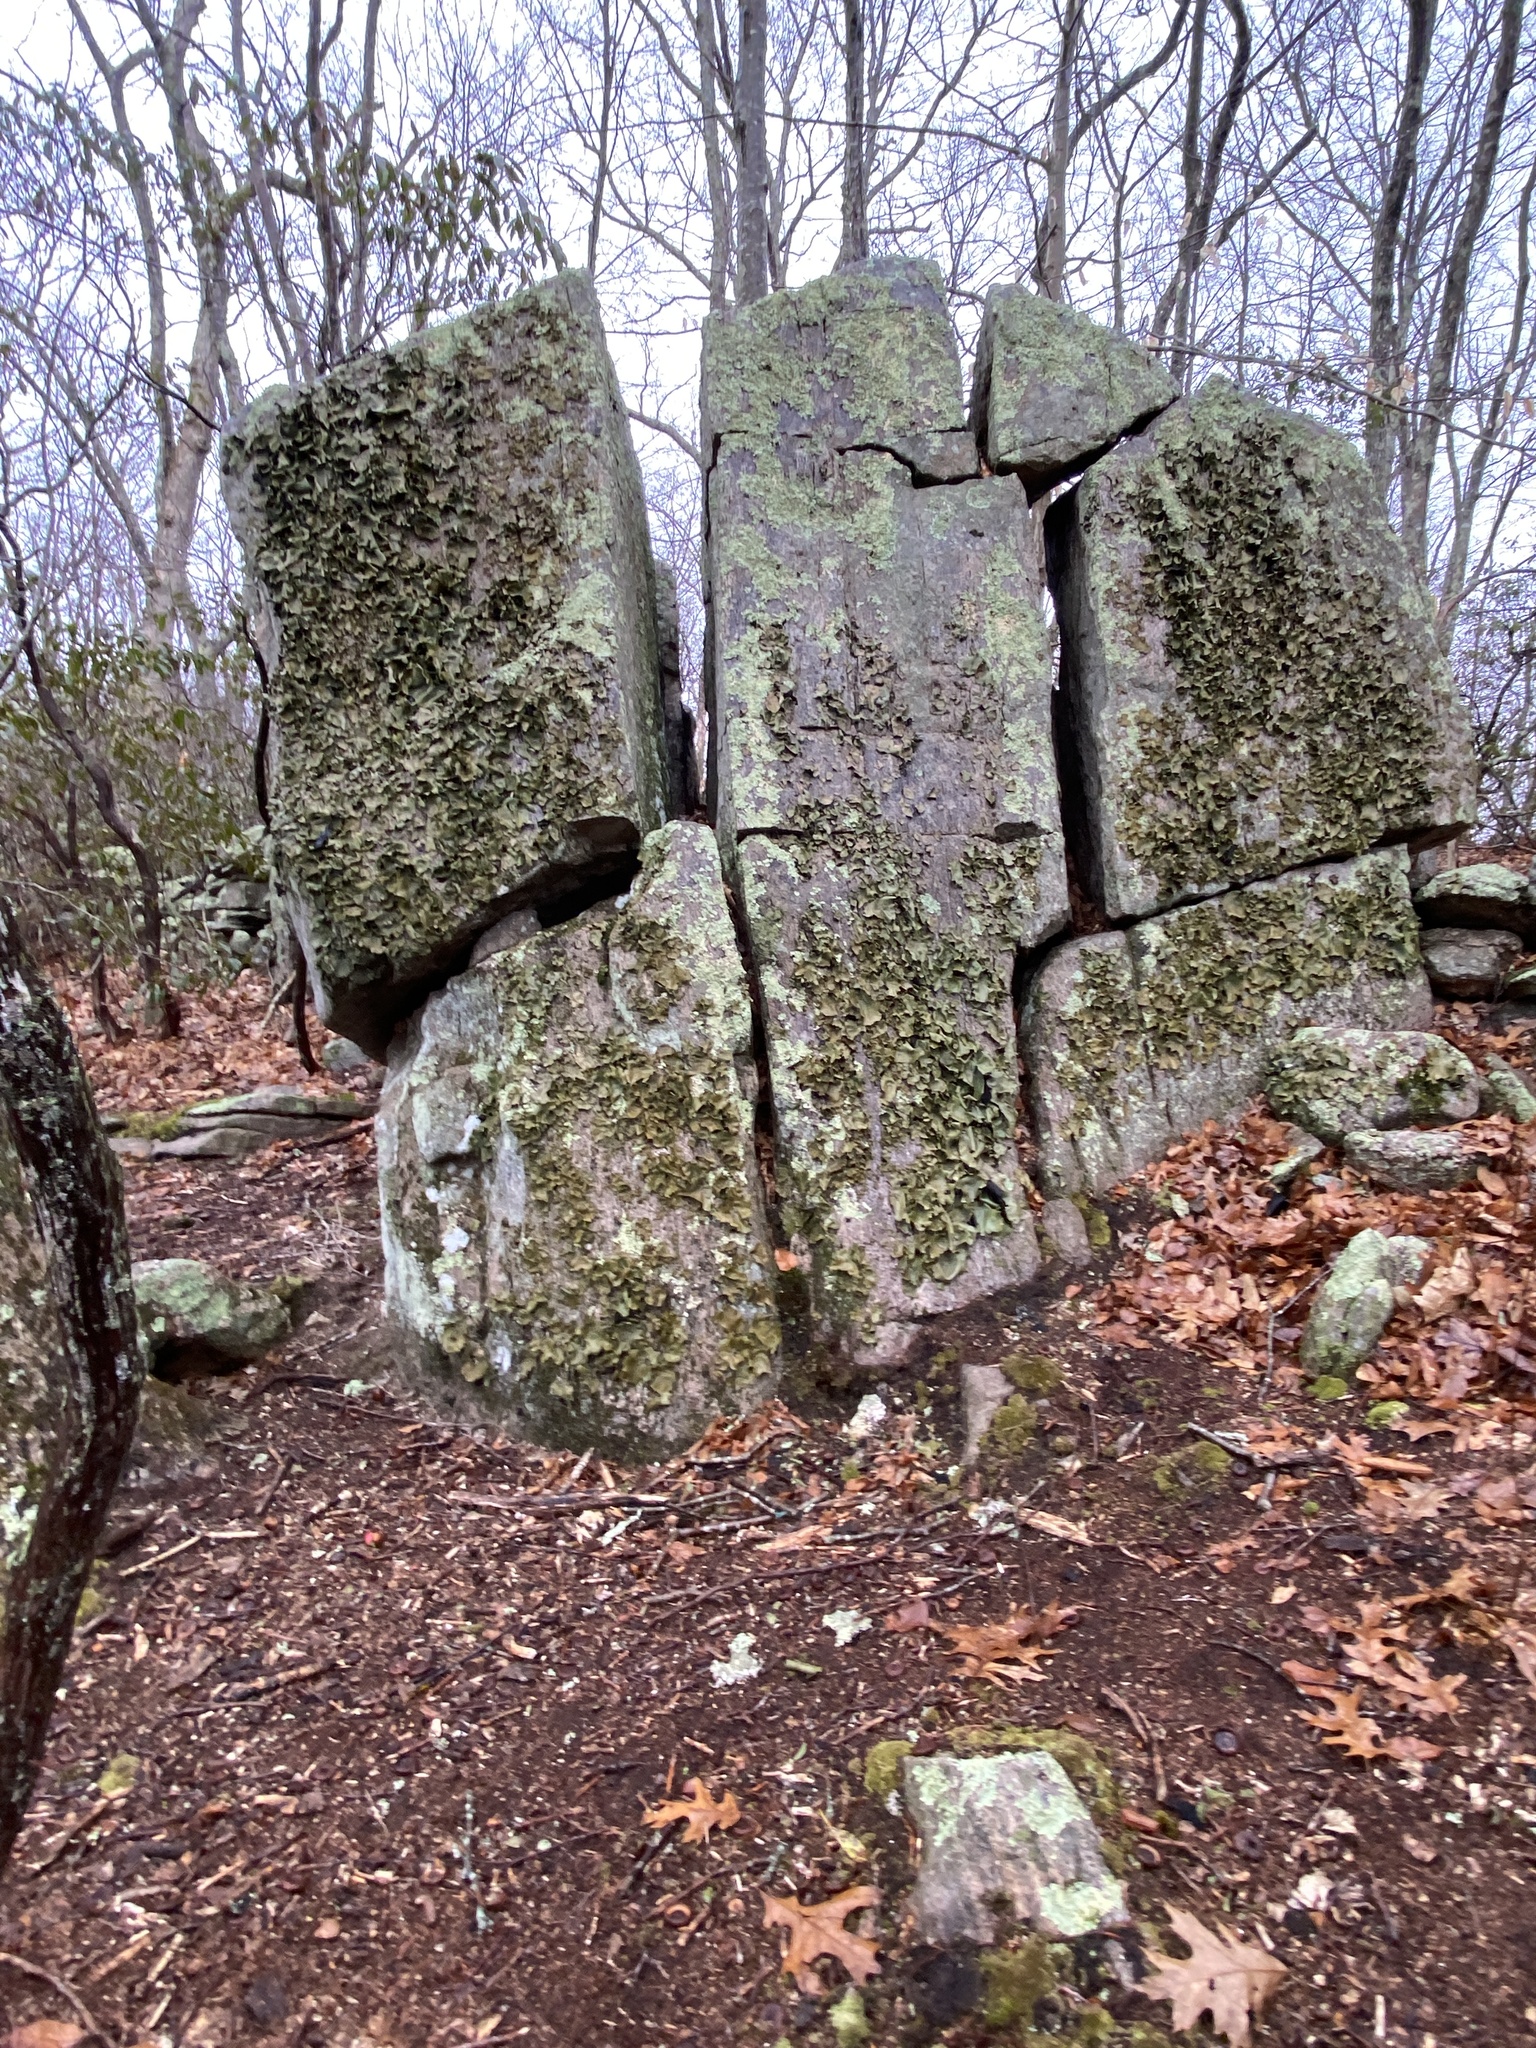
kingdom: Fungi
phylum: Ascomycota
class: Lecanoromycetes
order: Umbilicariales
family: Umbilicariaceae
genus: Umbilicaria
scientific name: Umbilicaria mammulata
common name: Smooth rock tripe
